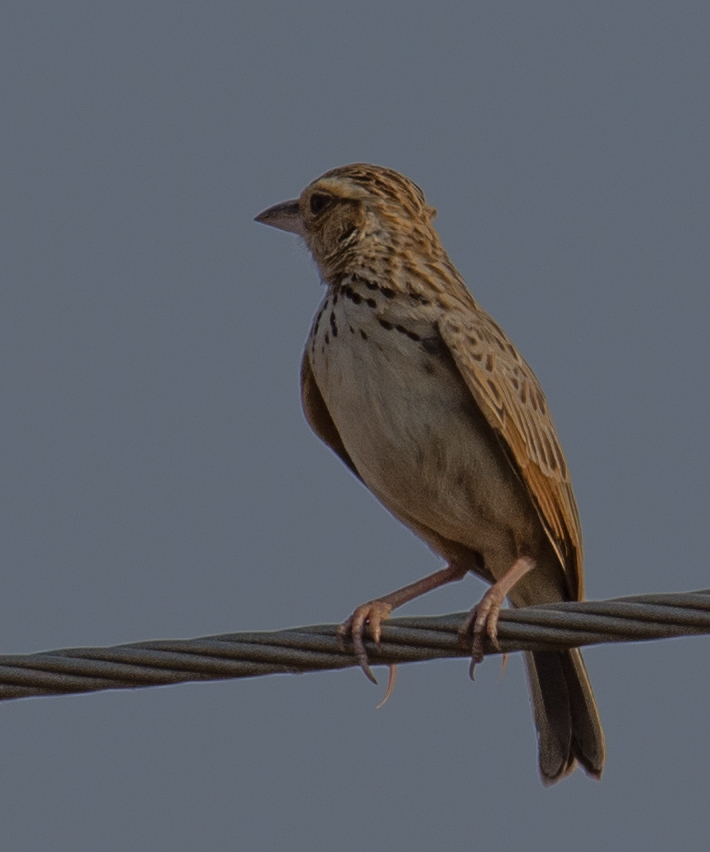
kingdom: Animalia
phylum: Chordata
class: Aves
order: Passeriformes
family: Alaudidae
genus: Mirafra
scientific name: Mirafra microptera
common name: Burmese bushlark
